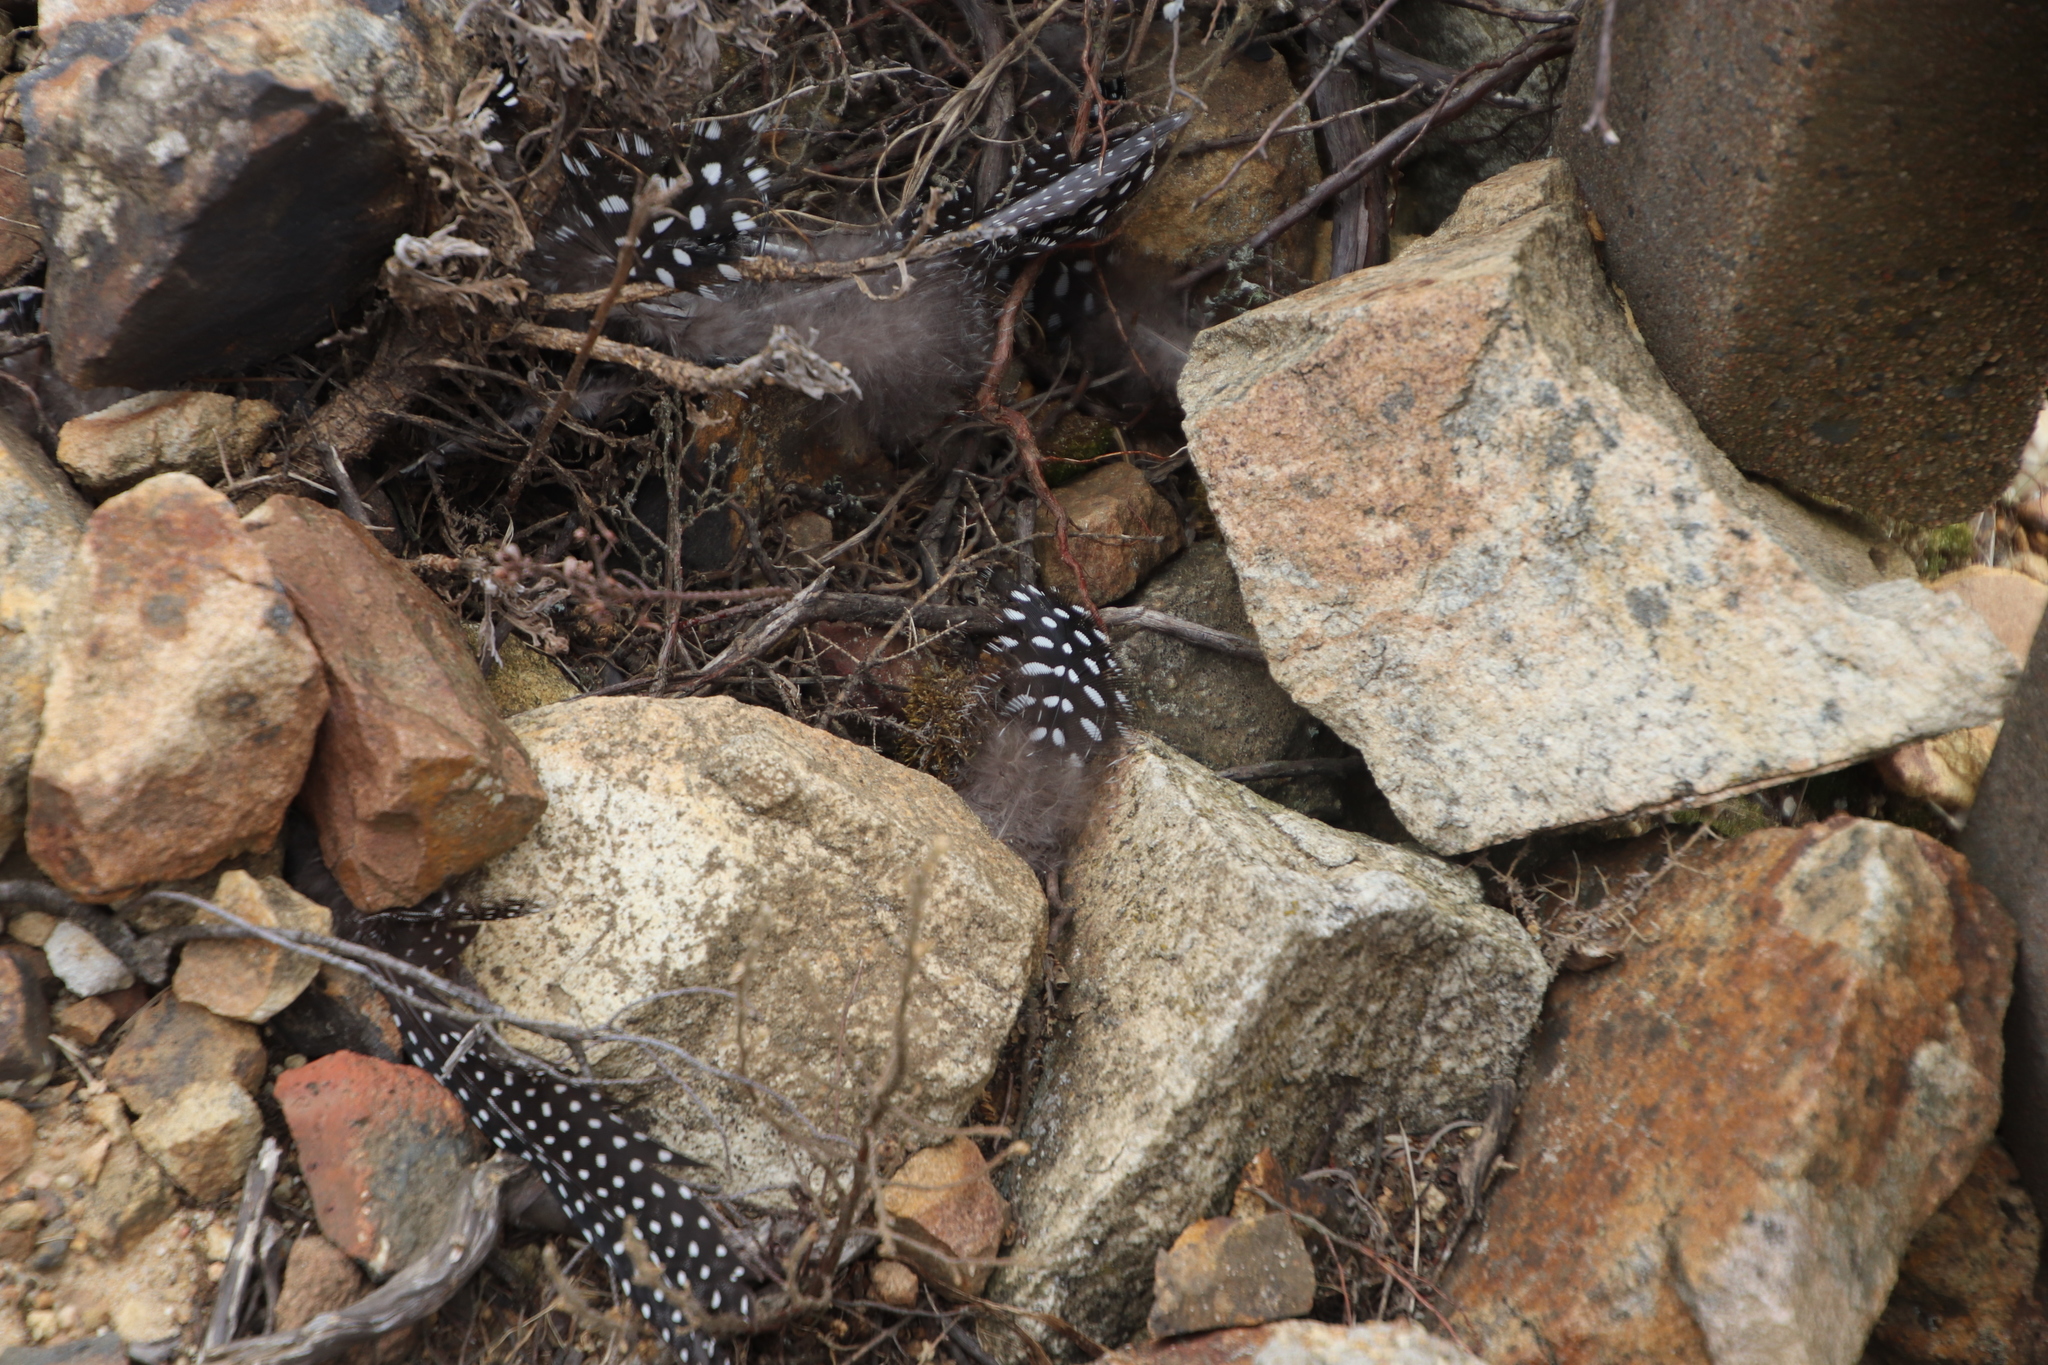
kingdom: Animalia
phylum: Chordata
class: Aves
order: Galliformes
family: Numididae
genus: Numida
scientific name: Numida meleagris
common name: Helmeted guineafowl
